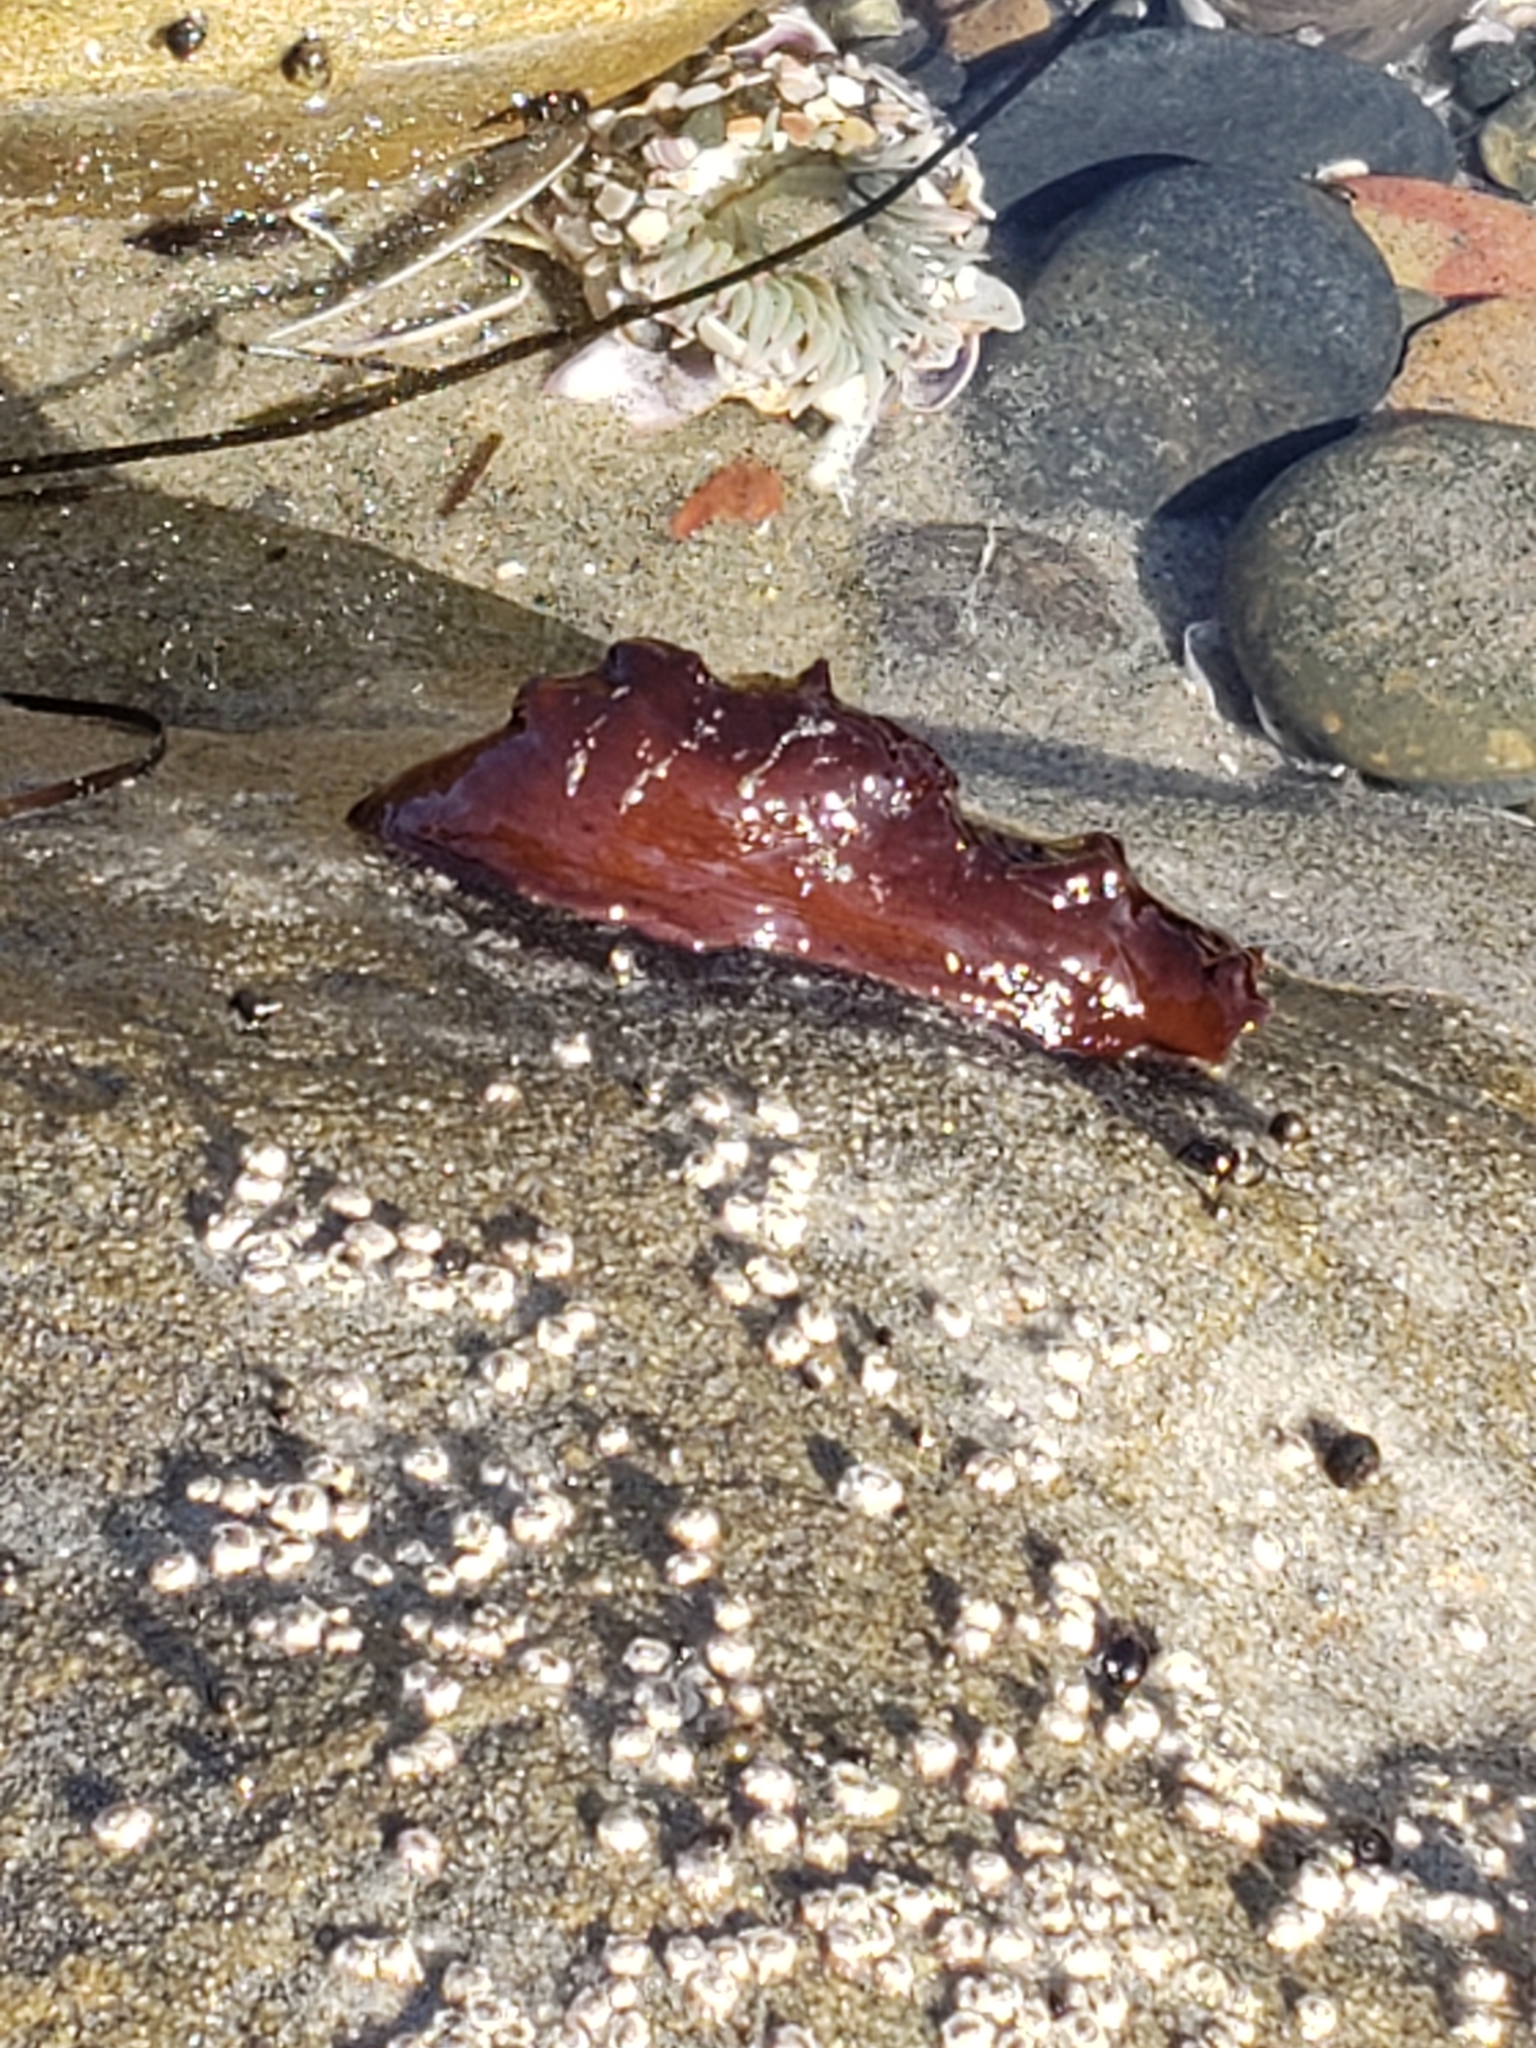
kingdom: Animalia
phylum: Mollusca
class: Gastropoda
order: Aplysiida
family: Aplysiidae
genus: Aplysia
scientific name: Aplysia californica
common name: California seahare
